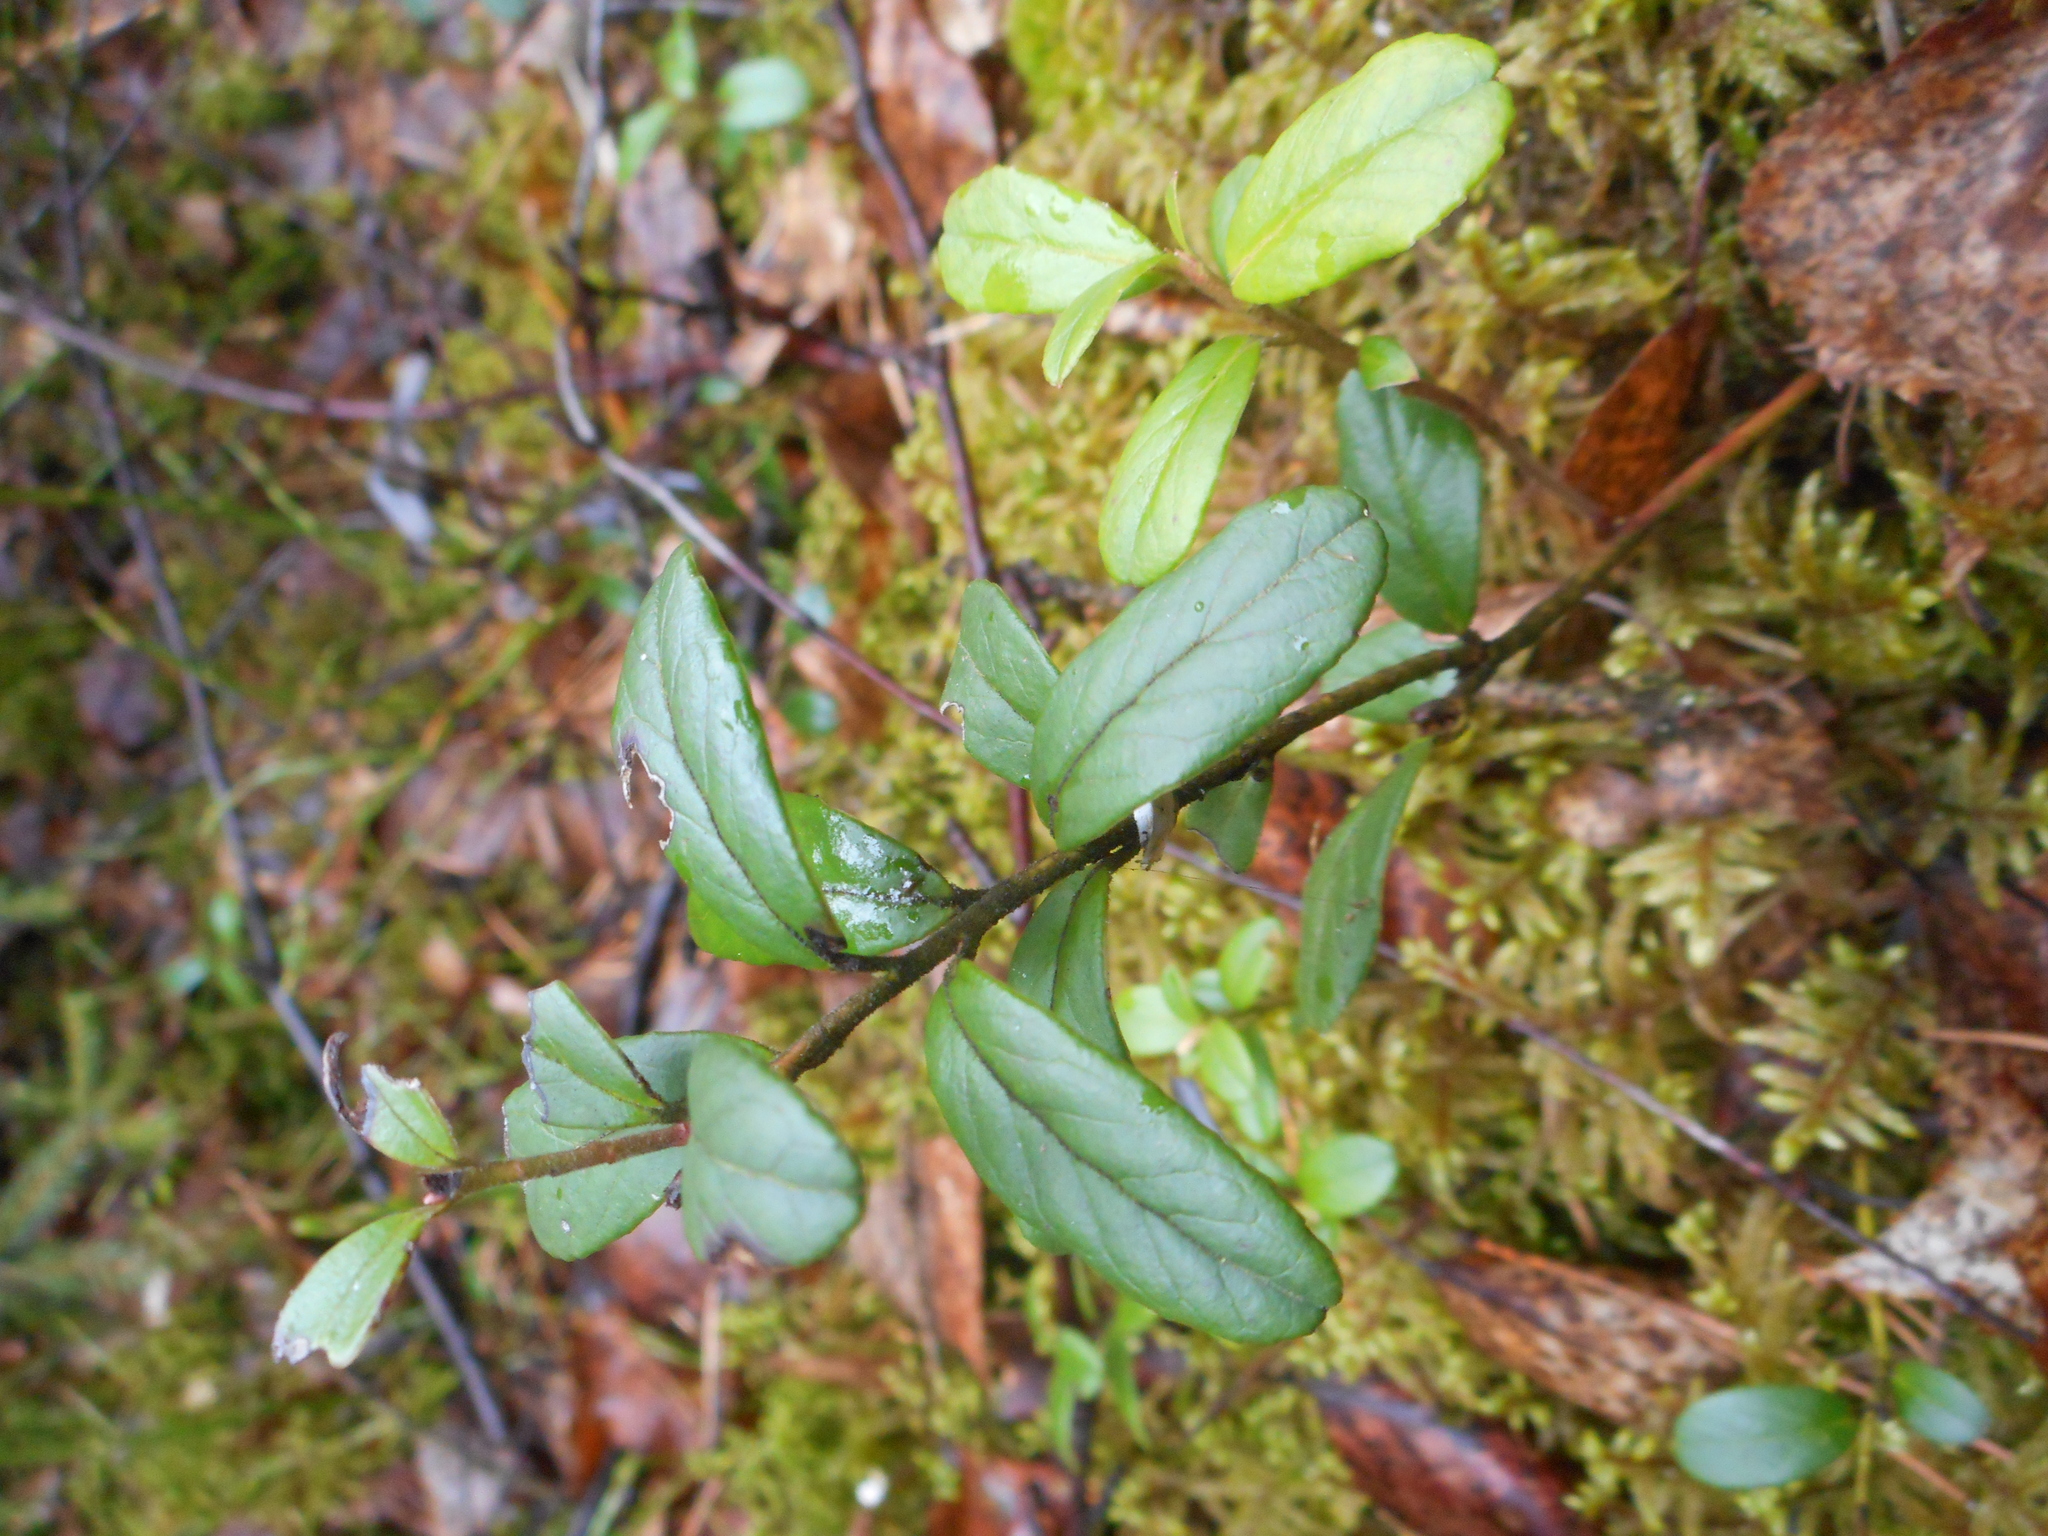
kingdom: Plantae
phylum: Tracheophyta
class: Magnoliopsida
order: Ericales
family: Ericaceae
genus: Vaccinium
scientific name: Vaccinium vitis-idaea
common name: Cowberry
